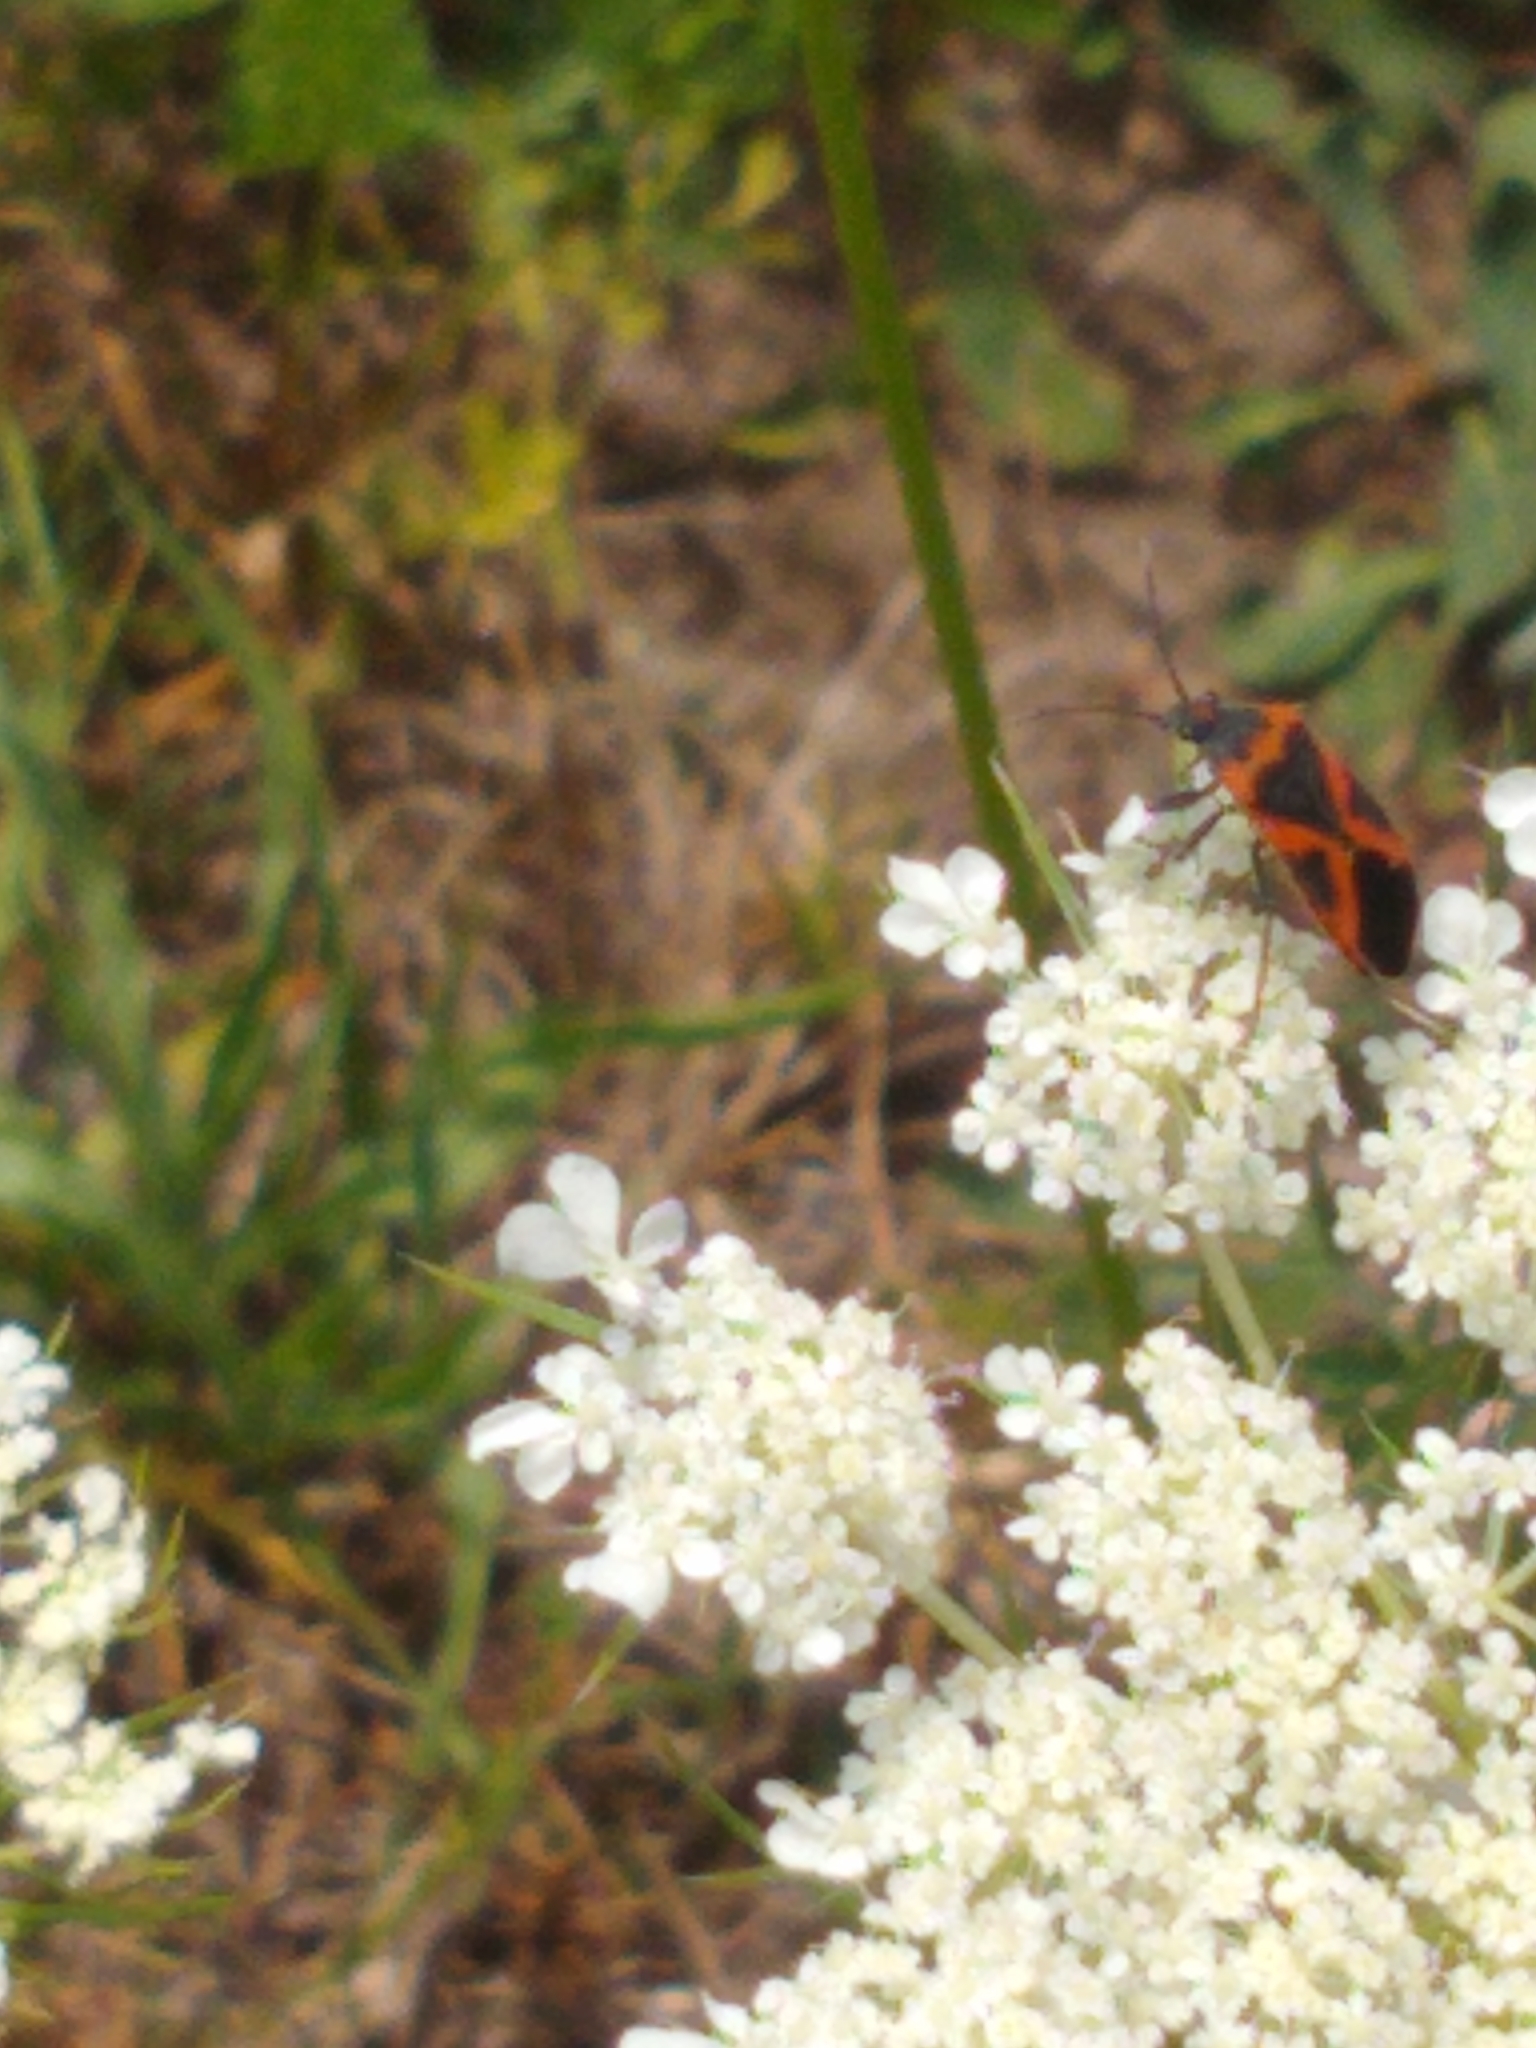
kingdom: Animalia
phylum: Arthropoda
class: Insecta
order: Hemiptera
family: Lygaeidae
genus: Lygaeus
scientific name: Lygaeus kalmii
